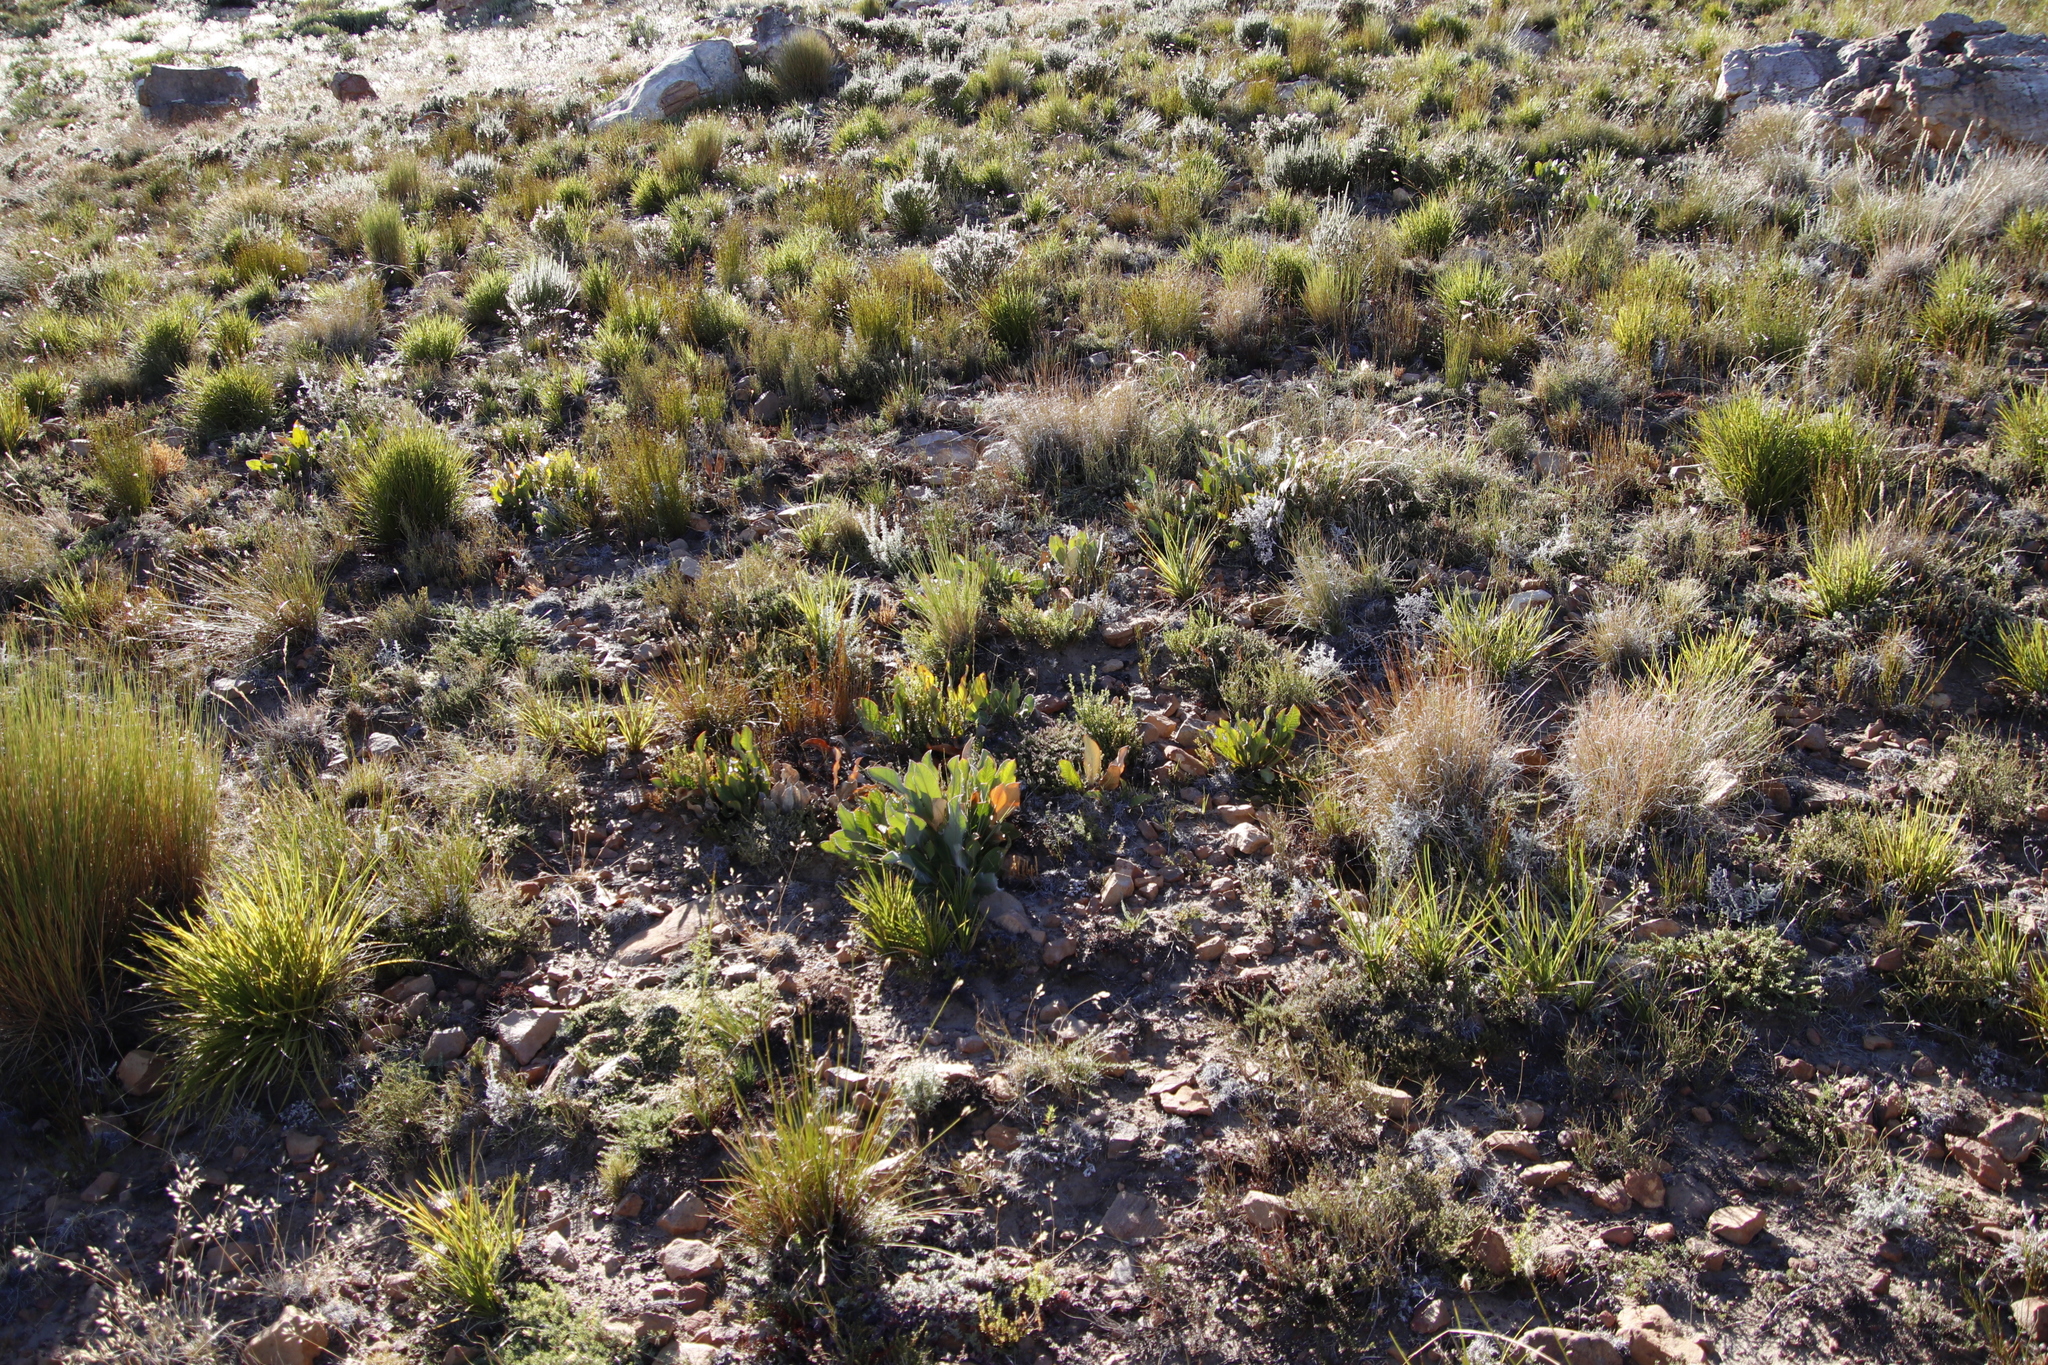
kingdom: Plantae
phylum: Tracheophyta
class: Magnoliopsida
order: Proteales
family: Proteaceae
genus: Protea
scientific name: Protea scolopendriifolia
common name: Harts-tongue-fern sugarbush
